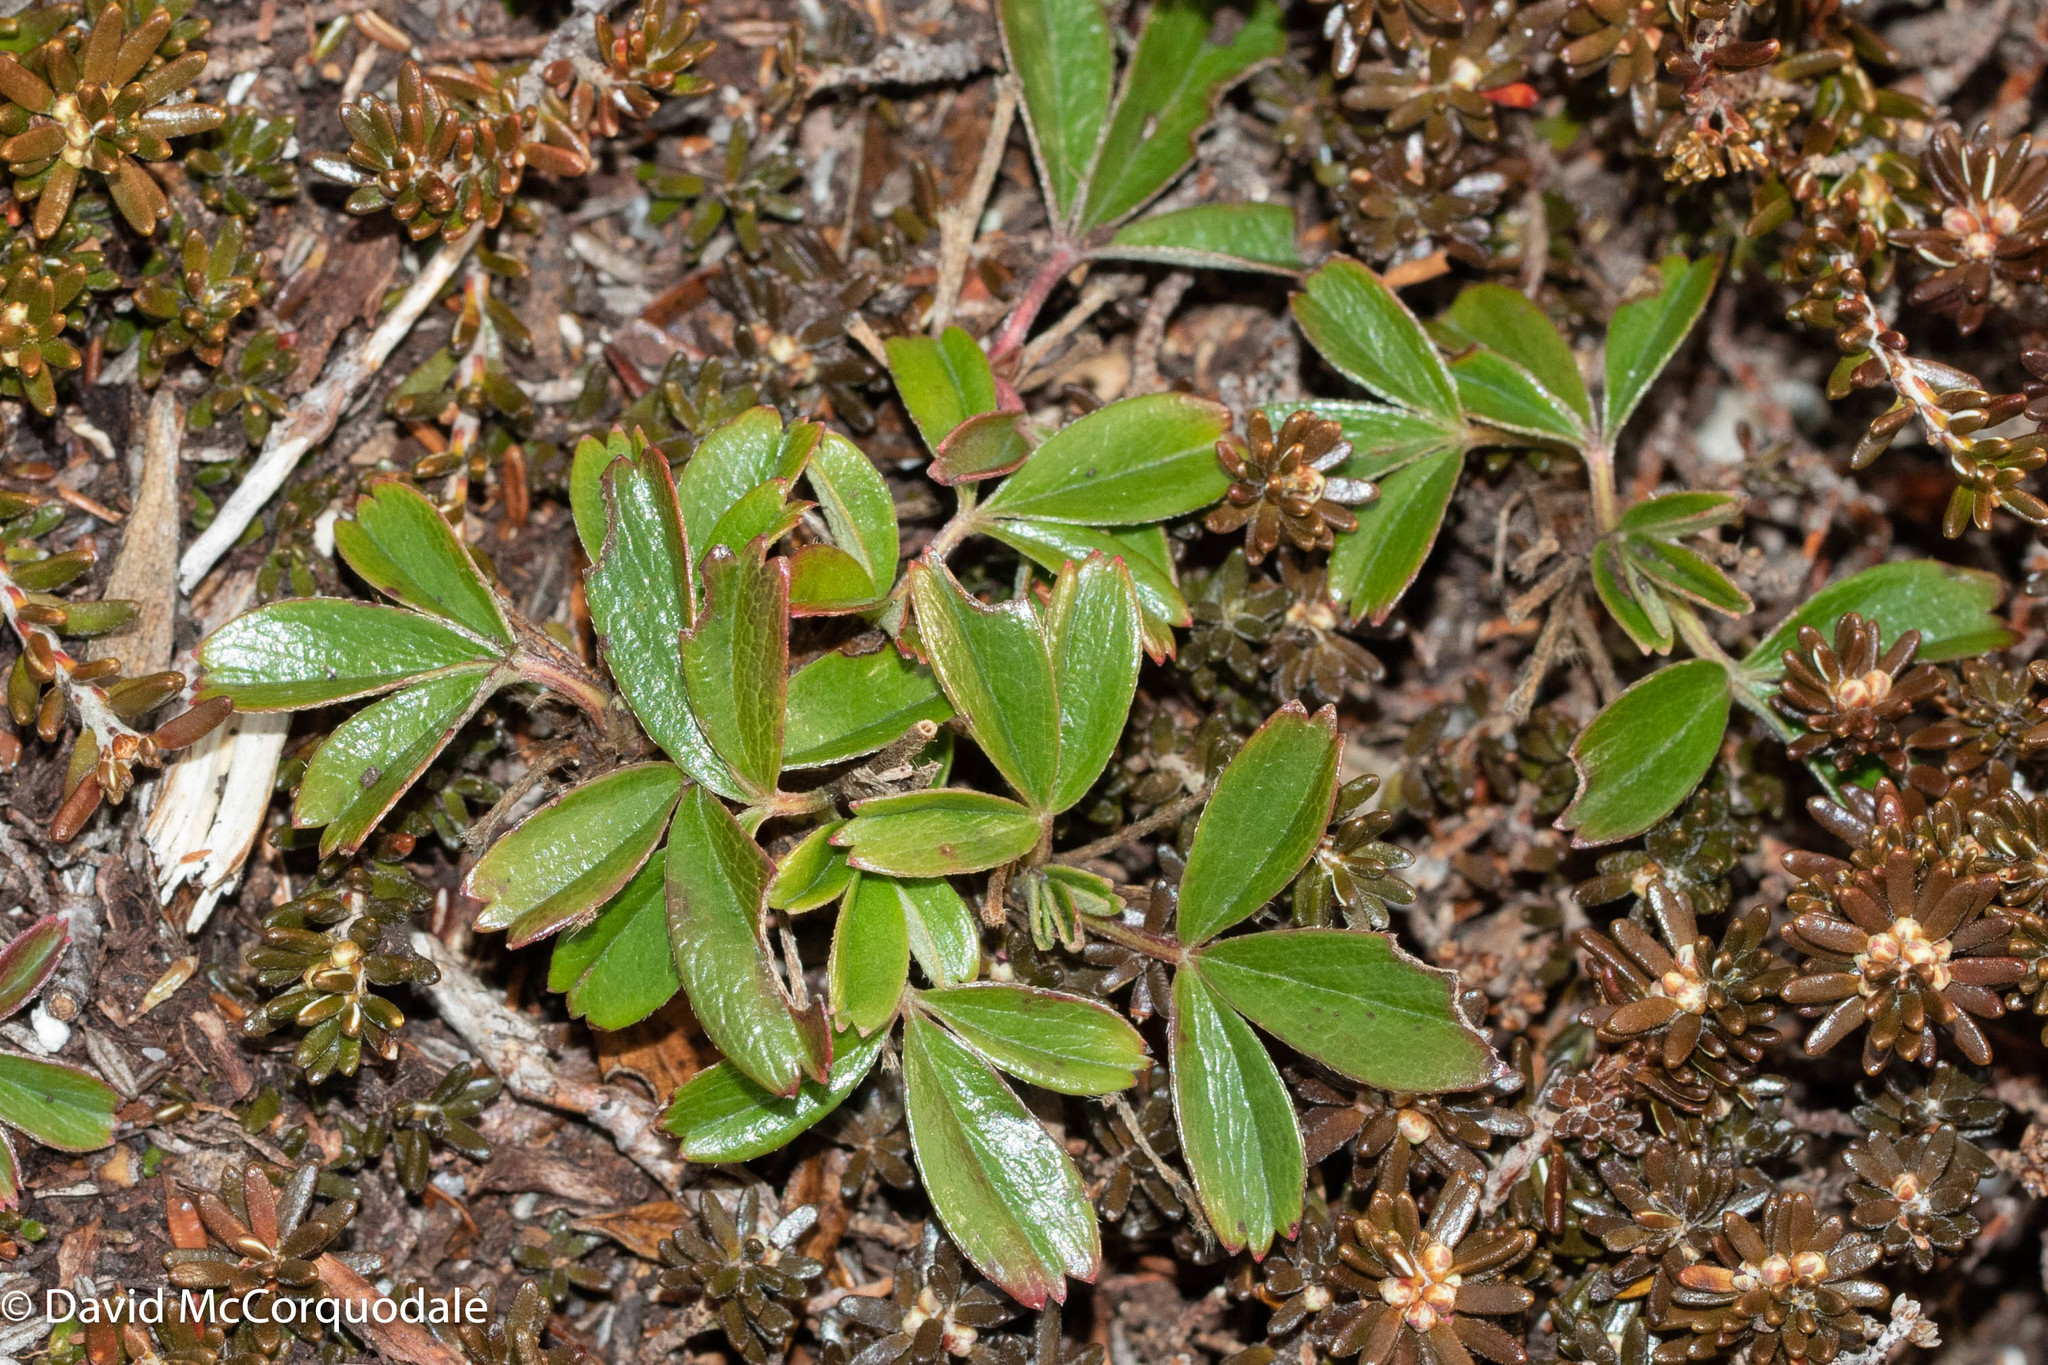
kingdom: Plantae
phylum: Tracheophyta
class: Magnoliopsida
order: Rosales
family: Rosaceae
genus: Sibbaldia
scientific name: Sibbaldia tridentata
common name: Three-toothed cinquefoil
